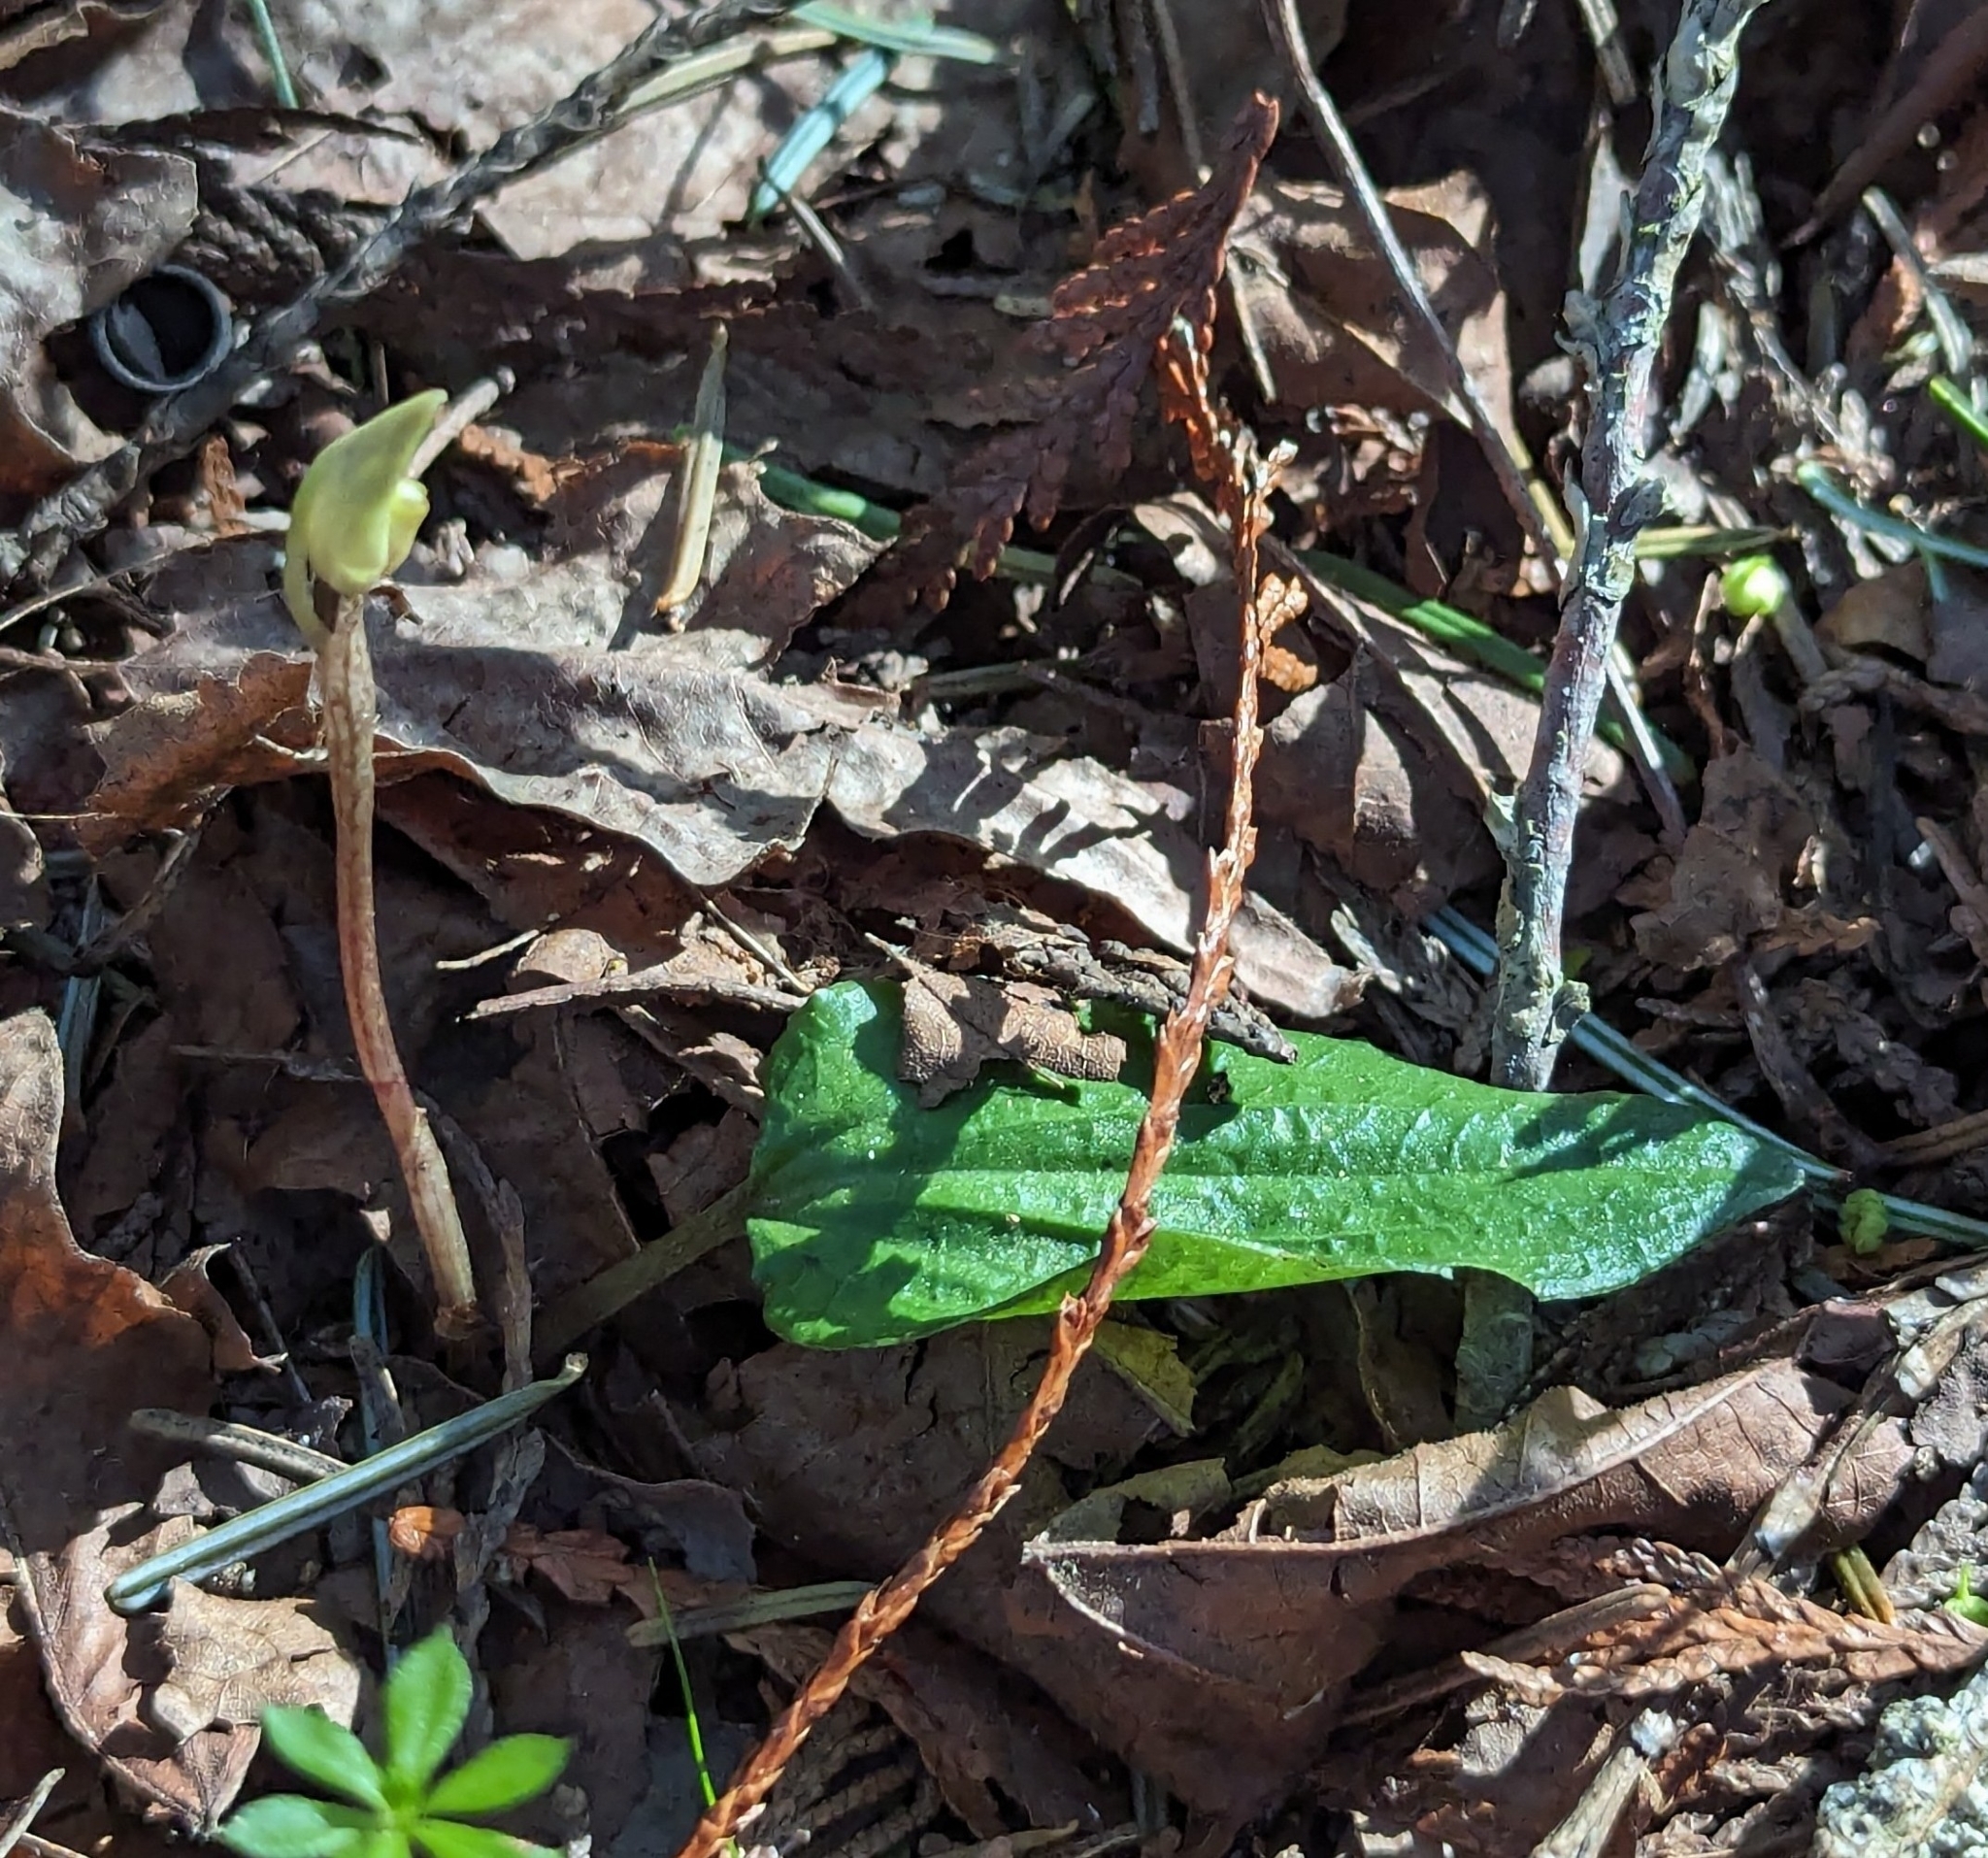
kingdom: Plantae
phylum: Tracheophyta
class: Liliopsida
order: Asparagales
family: Orchidaceae
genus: Calypso
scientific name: Calypso bulbosa
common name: Calypso
